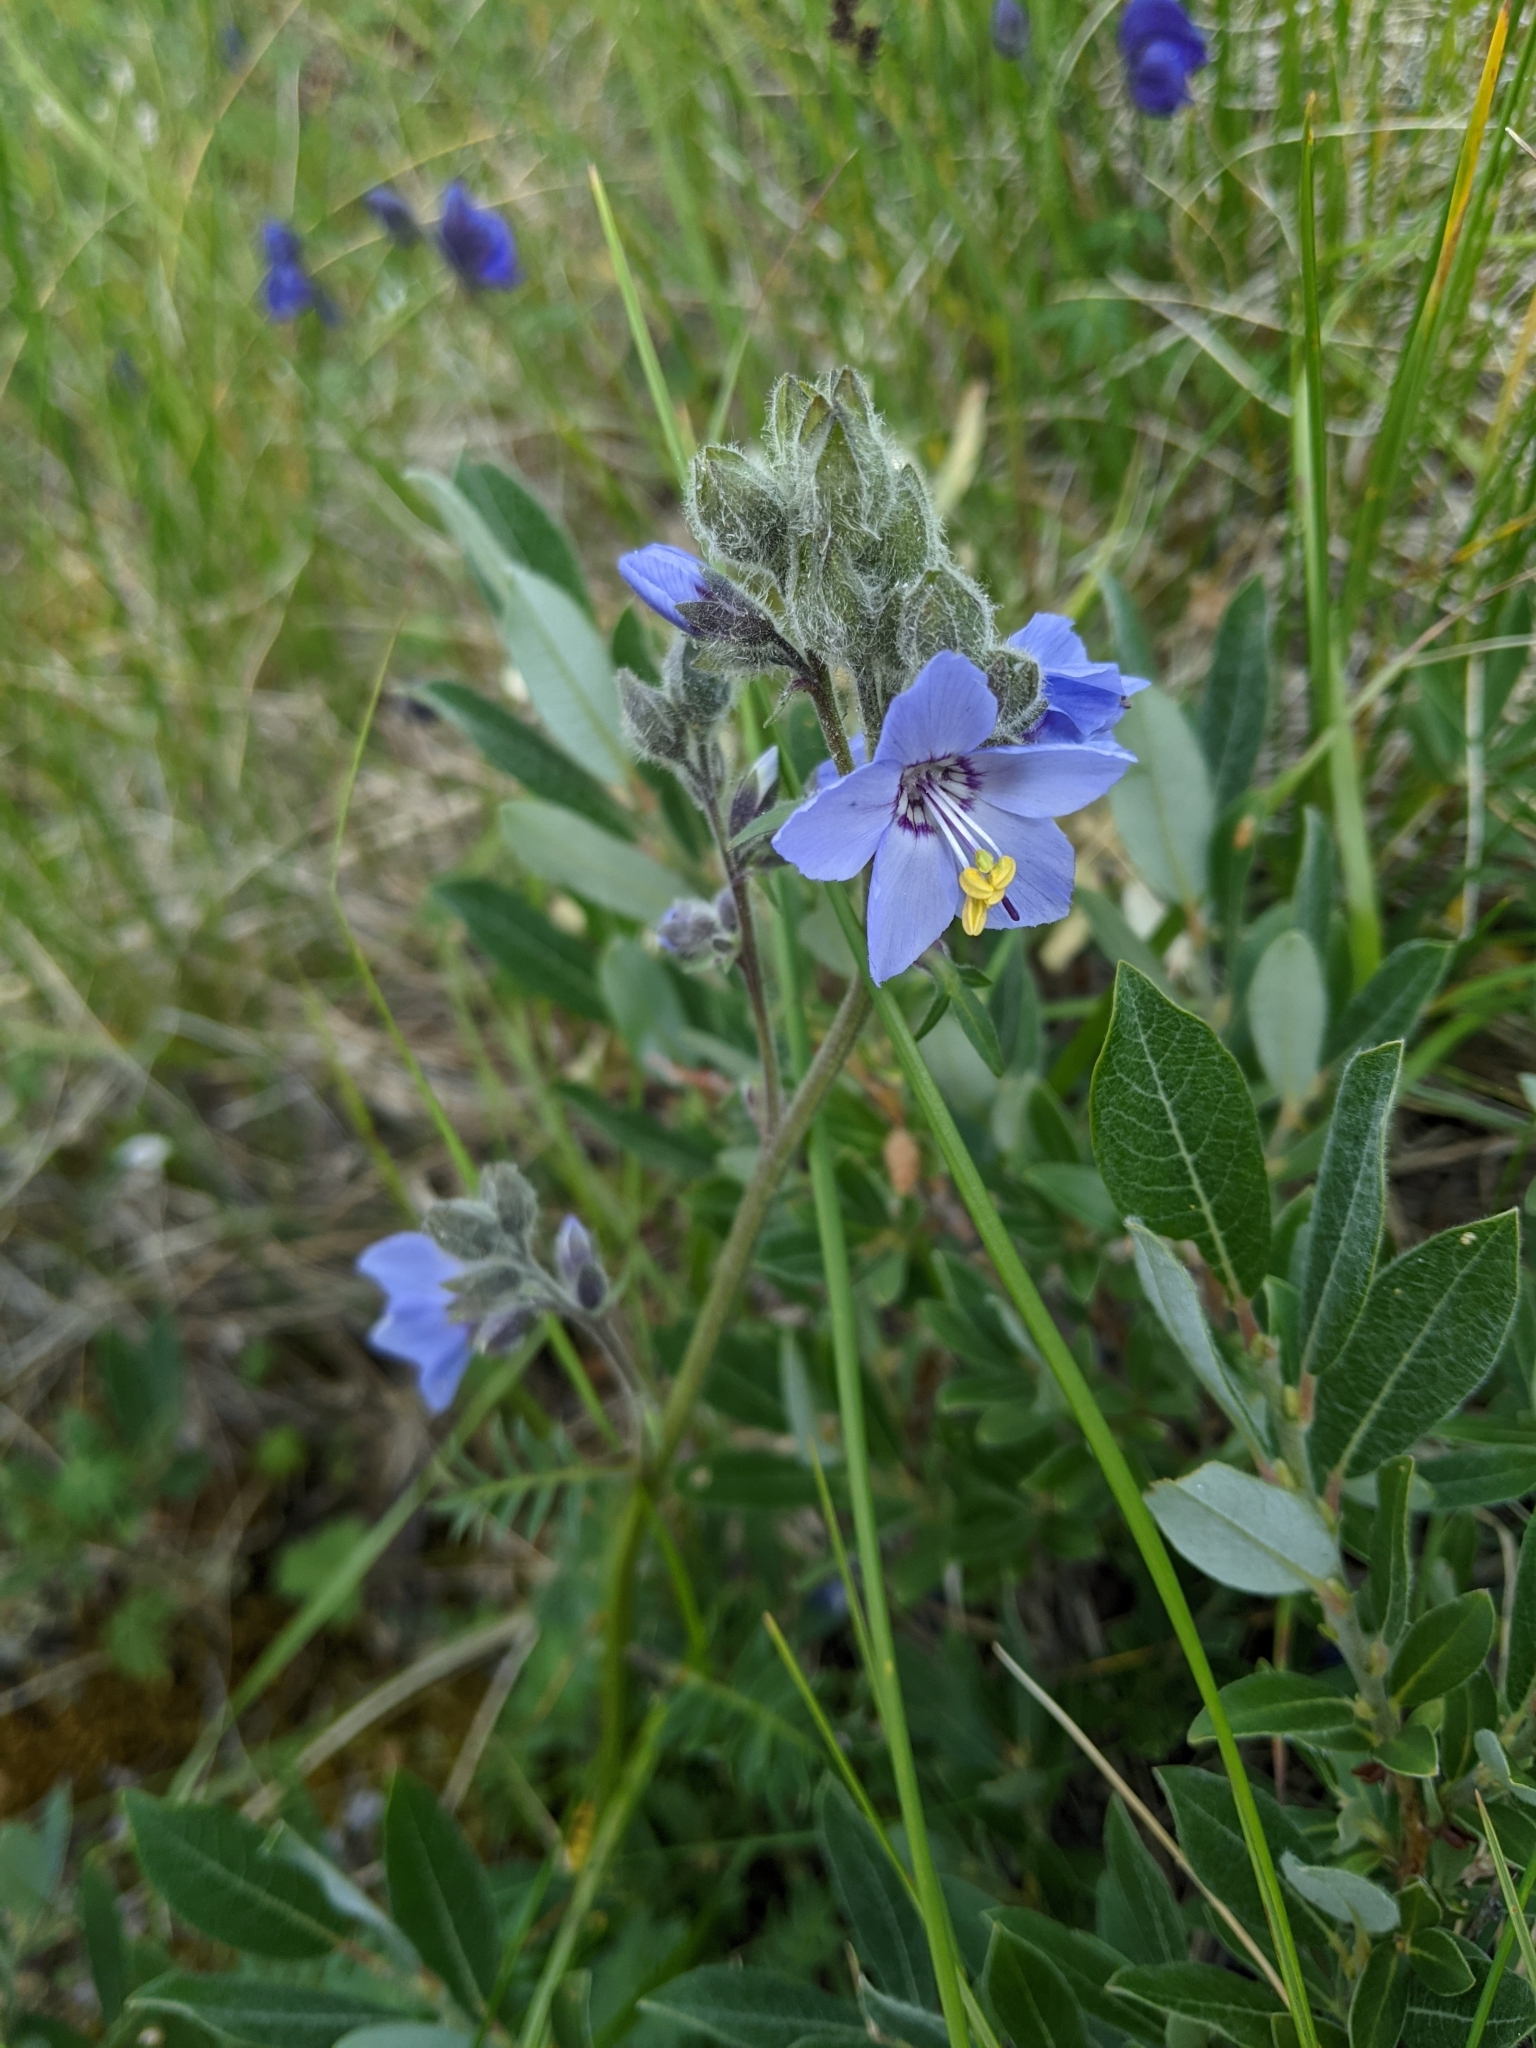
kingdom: Plantae
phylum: Tracheophyta
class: Magnoliopsida
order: Ericales
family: Polemoniaceae
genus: Polemonium
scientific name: Polemonium acutiflorum
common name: Tall jacob's-ladder
